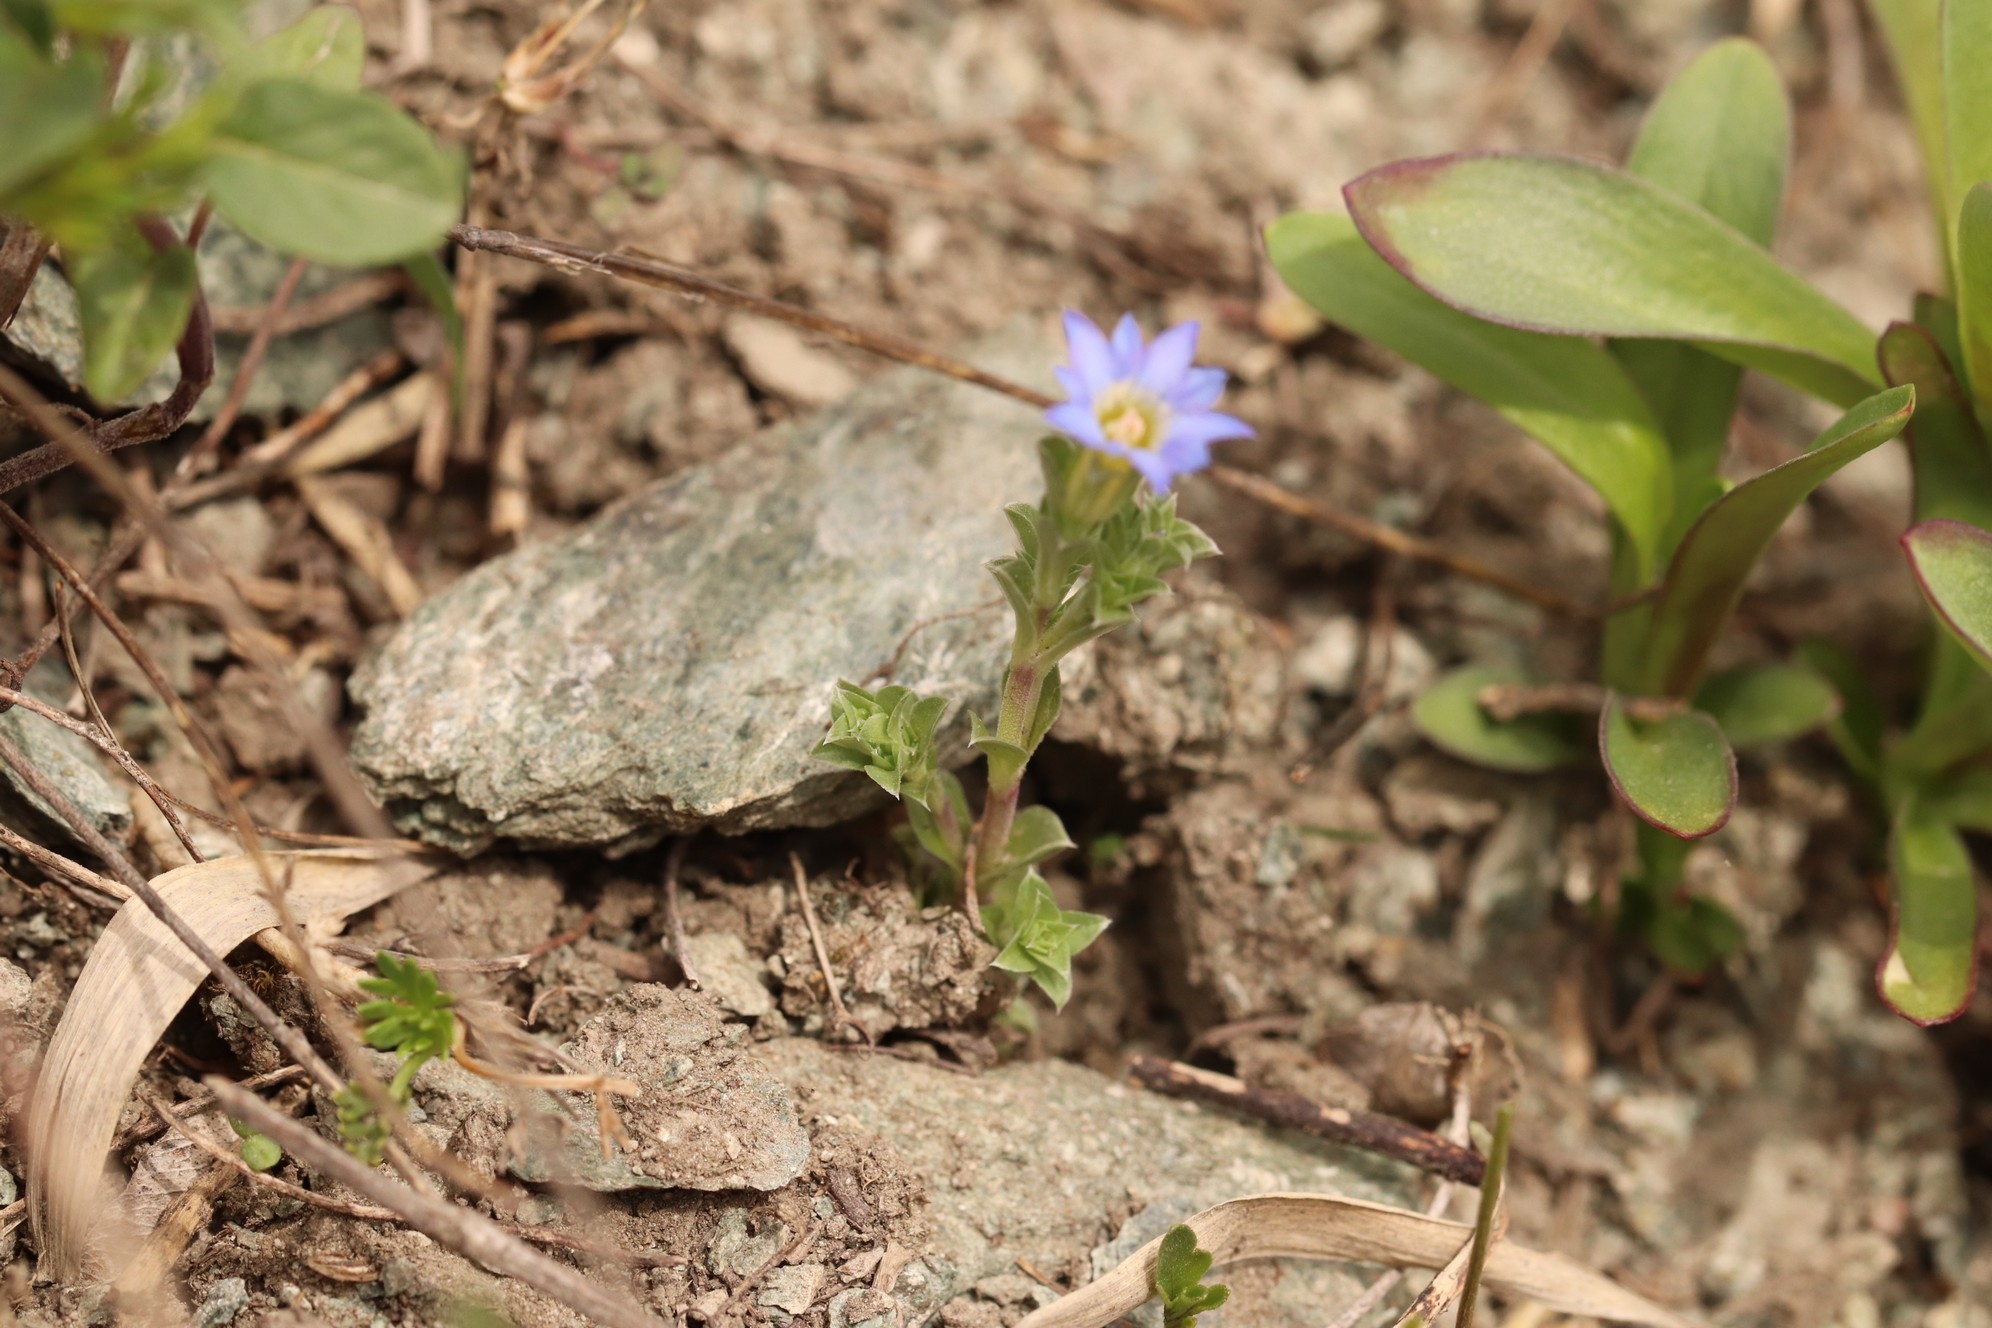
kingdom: Plantae
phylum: Tracheophyta
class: Magnoliopsida
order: Gentianales
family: Gentianaceae
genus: Gentiana
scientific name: Gentiana squarrosa
